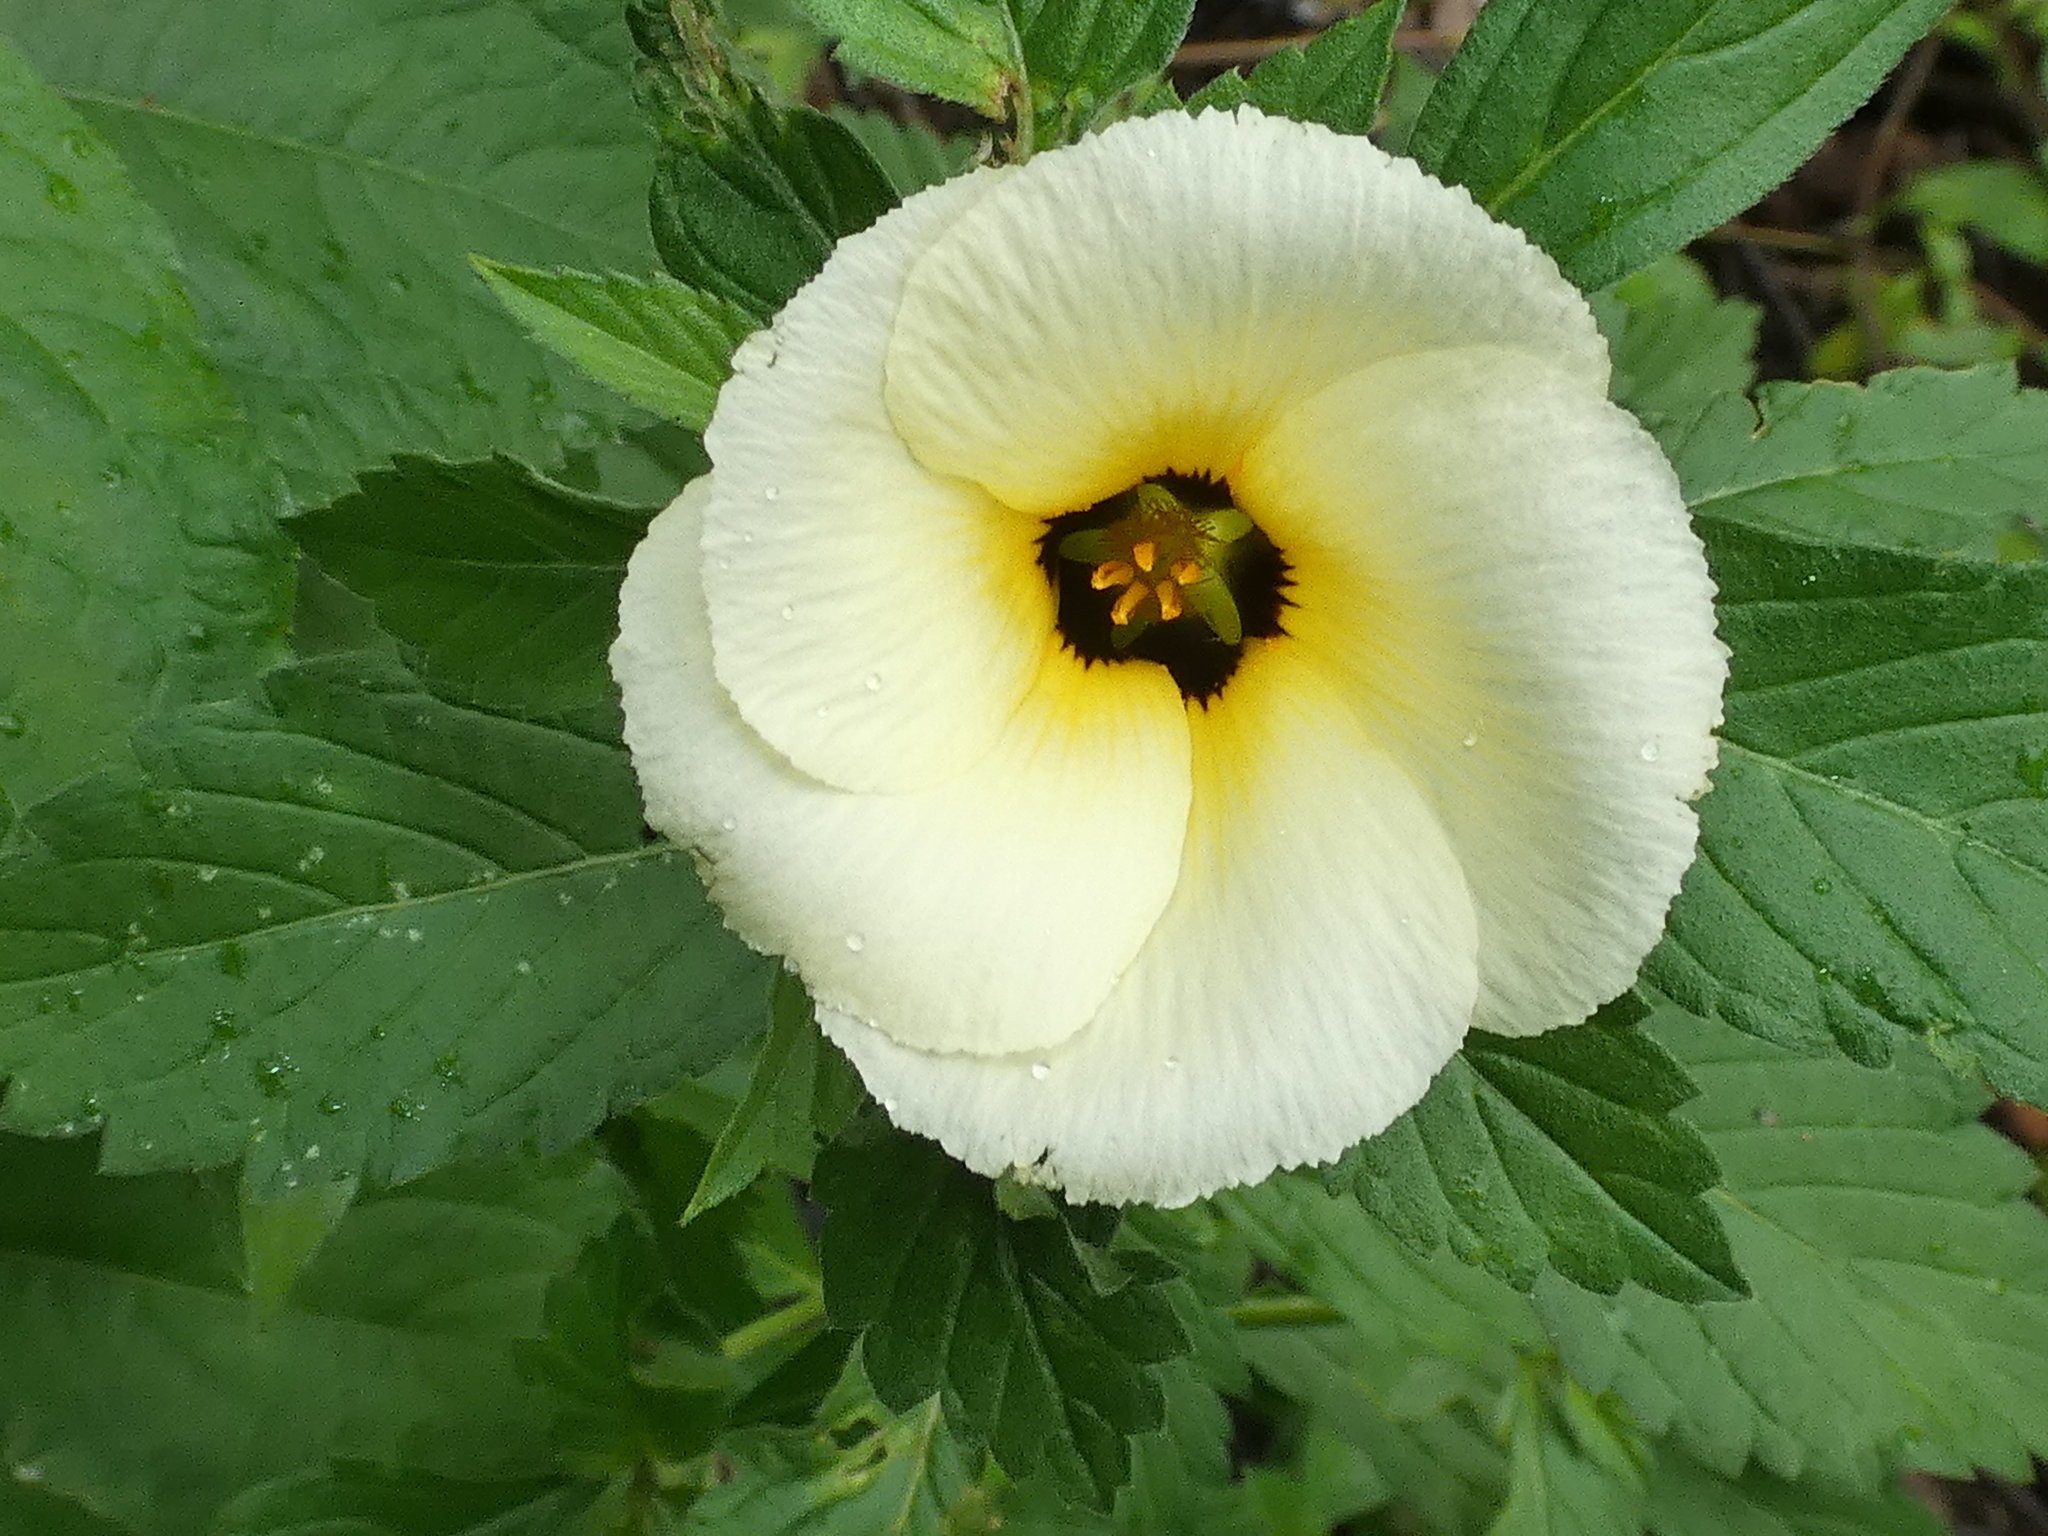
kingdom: Plantae
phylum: Tracheophyta
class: Magnoliopsida
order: Malpighiales
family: Turneraceae
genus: Turnera
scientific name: Turnera subulata
